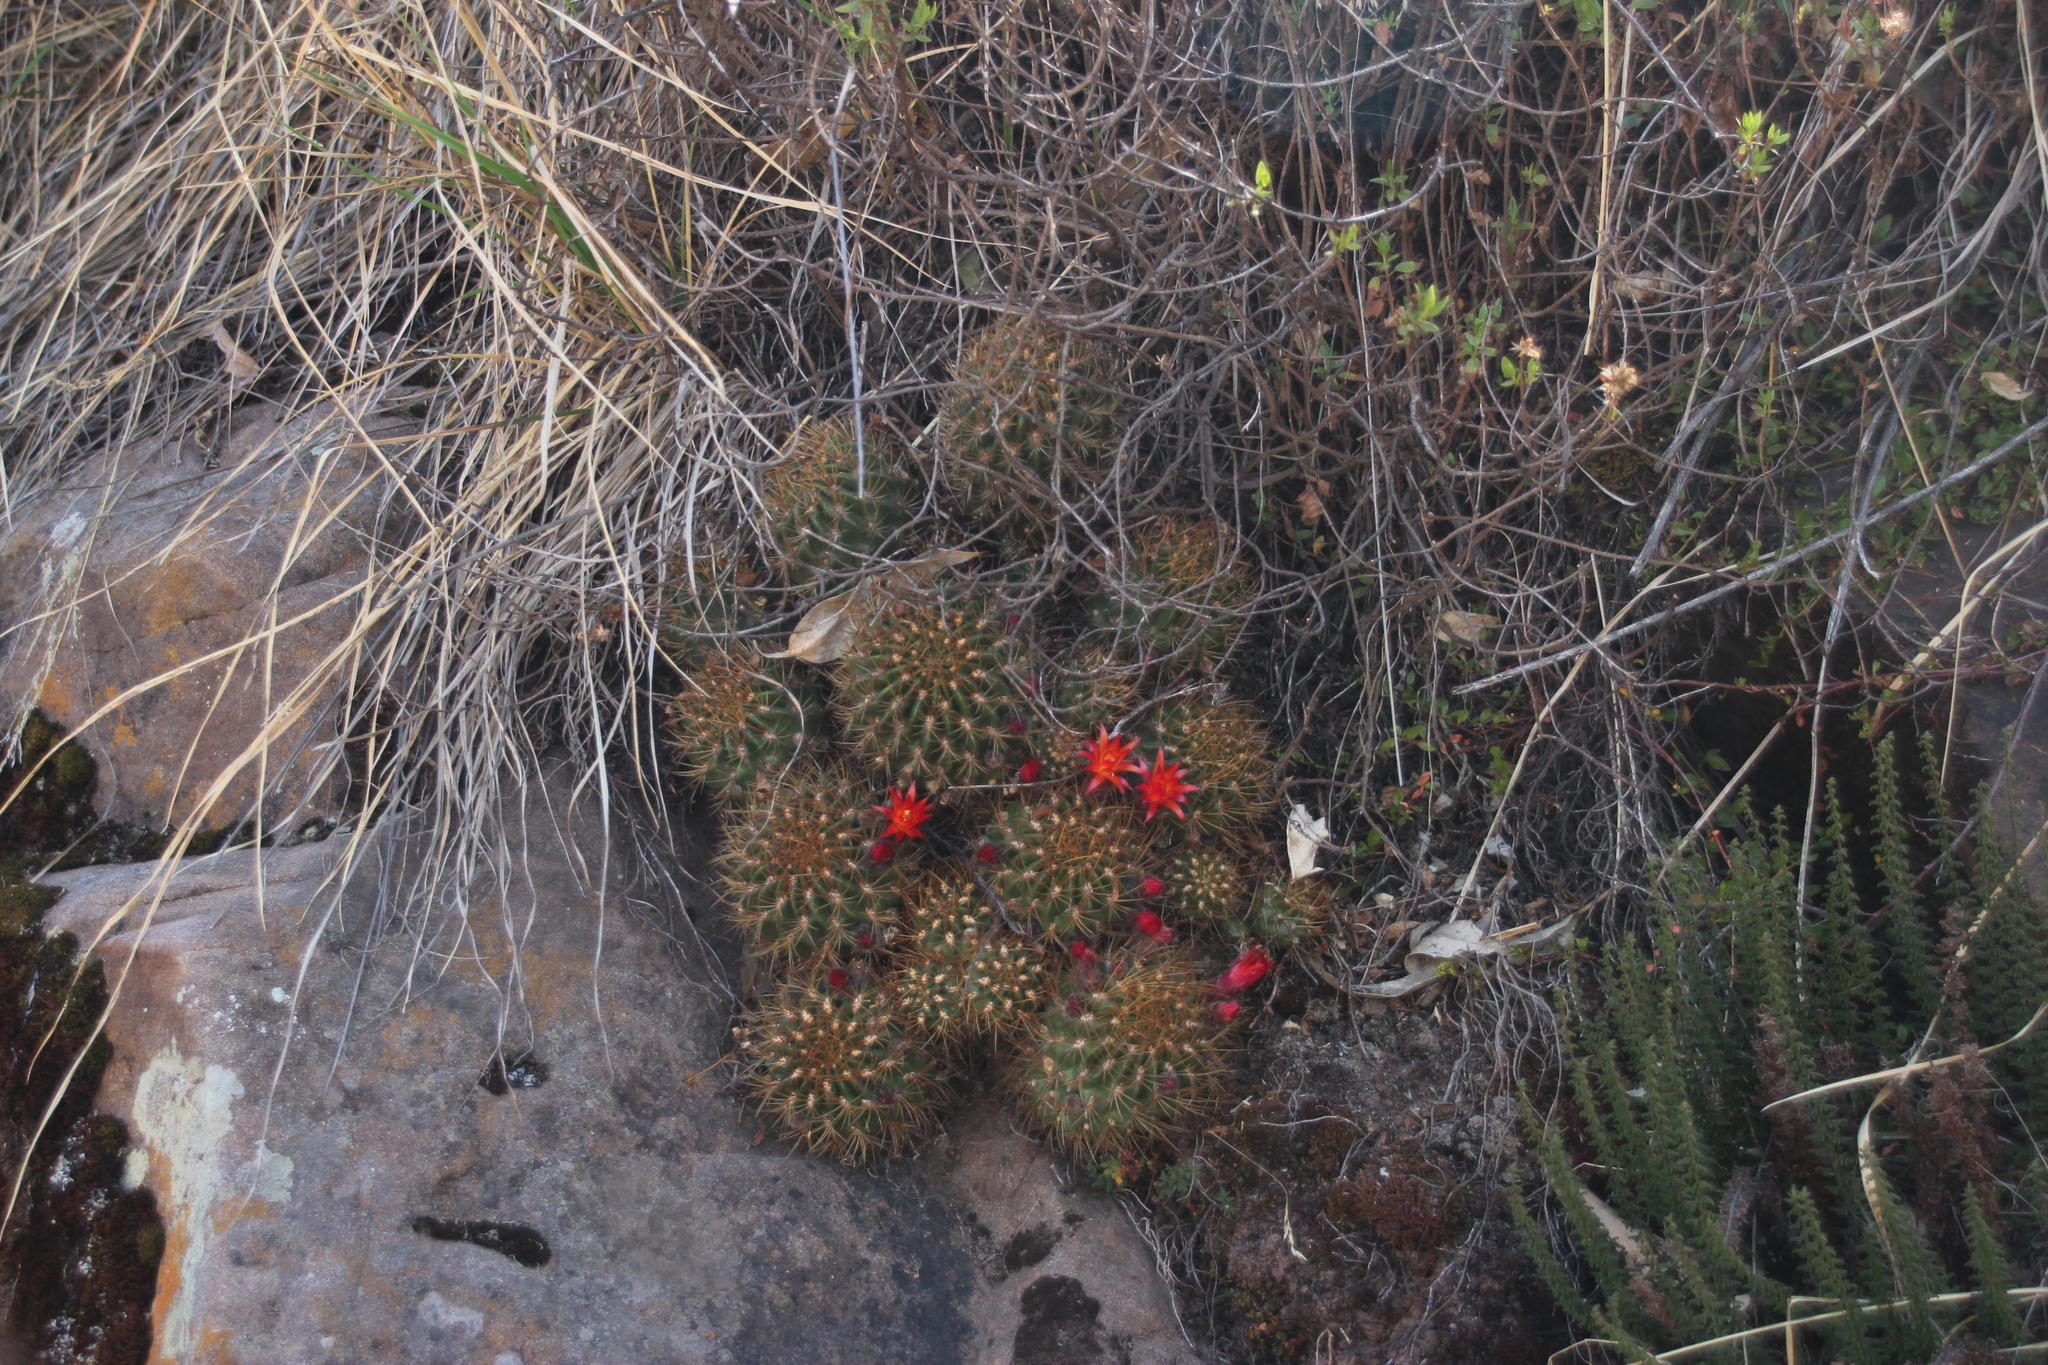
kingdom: Plantae
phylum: Tracheophyta
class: Magnoliopsida
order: Caryophyllales
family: Cactaceae
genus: Lobivia
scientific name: Lobivia maximiliana
